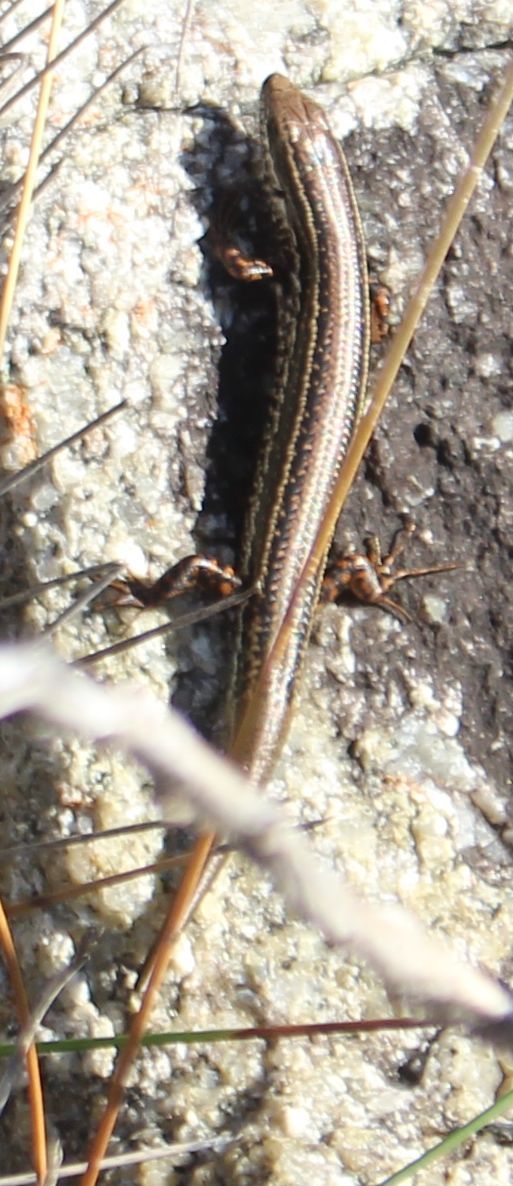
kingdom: Animalia
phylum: Chordata
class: Squamata
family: Scincidae
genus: Ctenotus
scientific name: Ctenotus labillardieri
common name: Common south-west ctenotus
